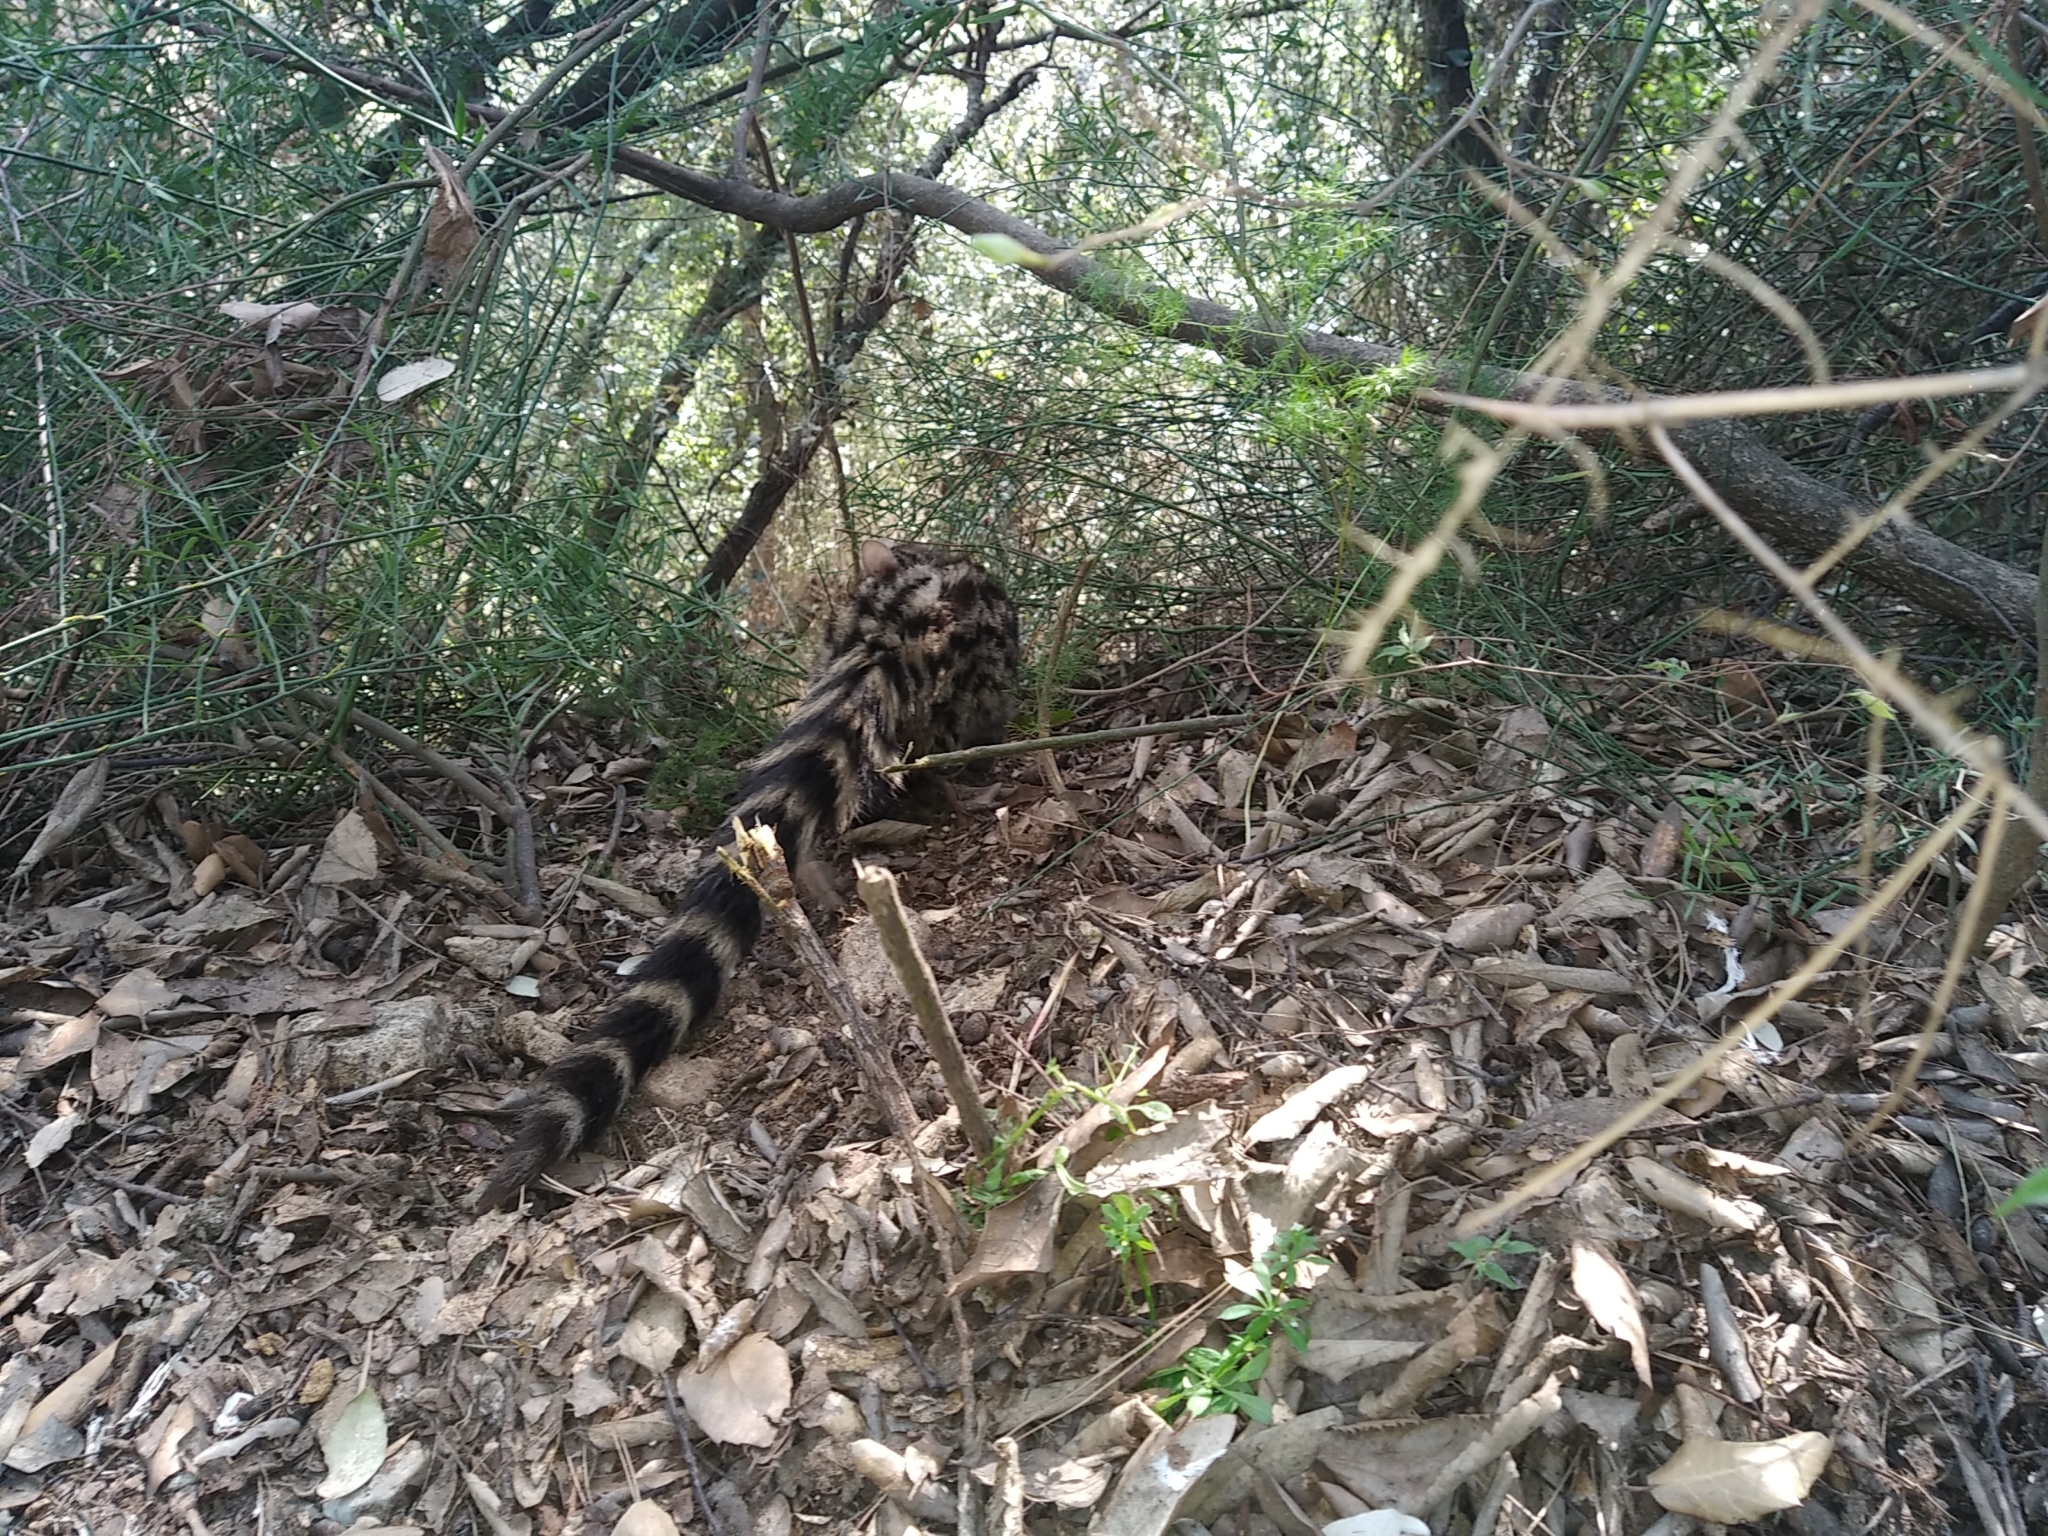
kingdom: Animalia
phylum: Chordata
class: Mammalia
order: Carnivora
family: Viverridae
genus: Genetta
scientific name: Genetta genetta
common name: Common genet
